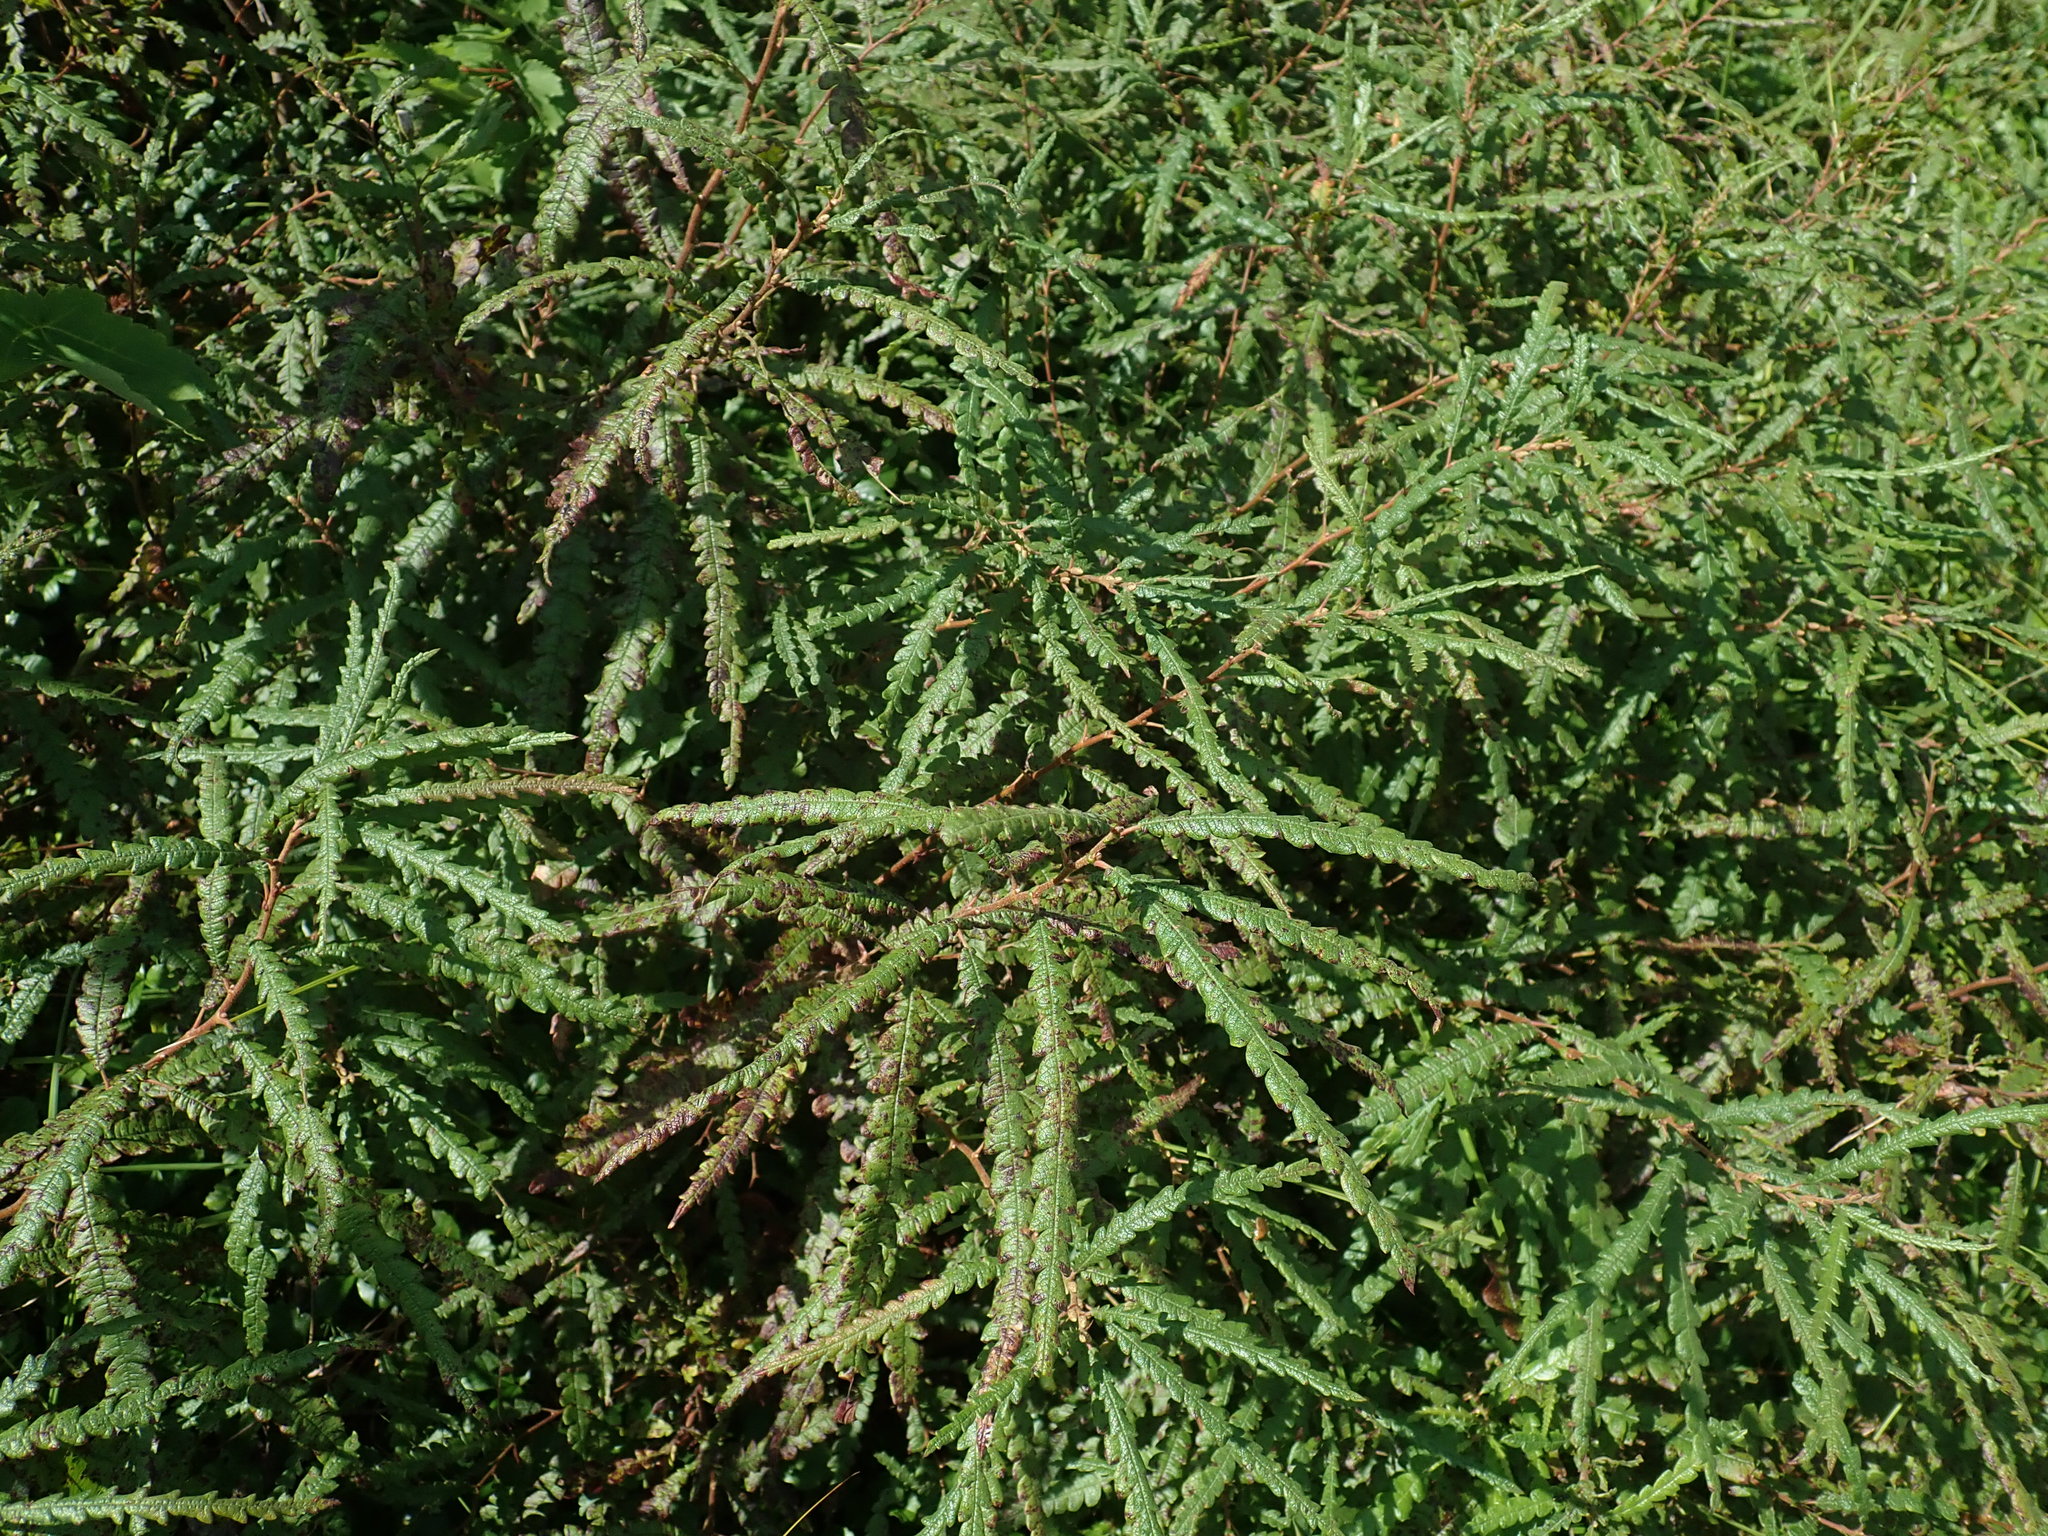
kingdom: Plantae
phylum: Tracheophyta
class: Magnoliopsida
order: Fagales
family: Myricaceae
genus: Comptonia
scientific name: Comptonia peregrina
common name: Sweet-fern
